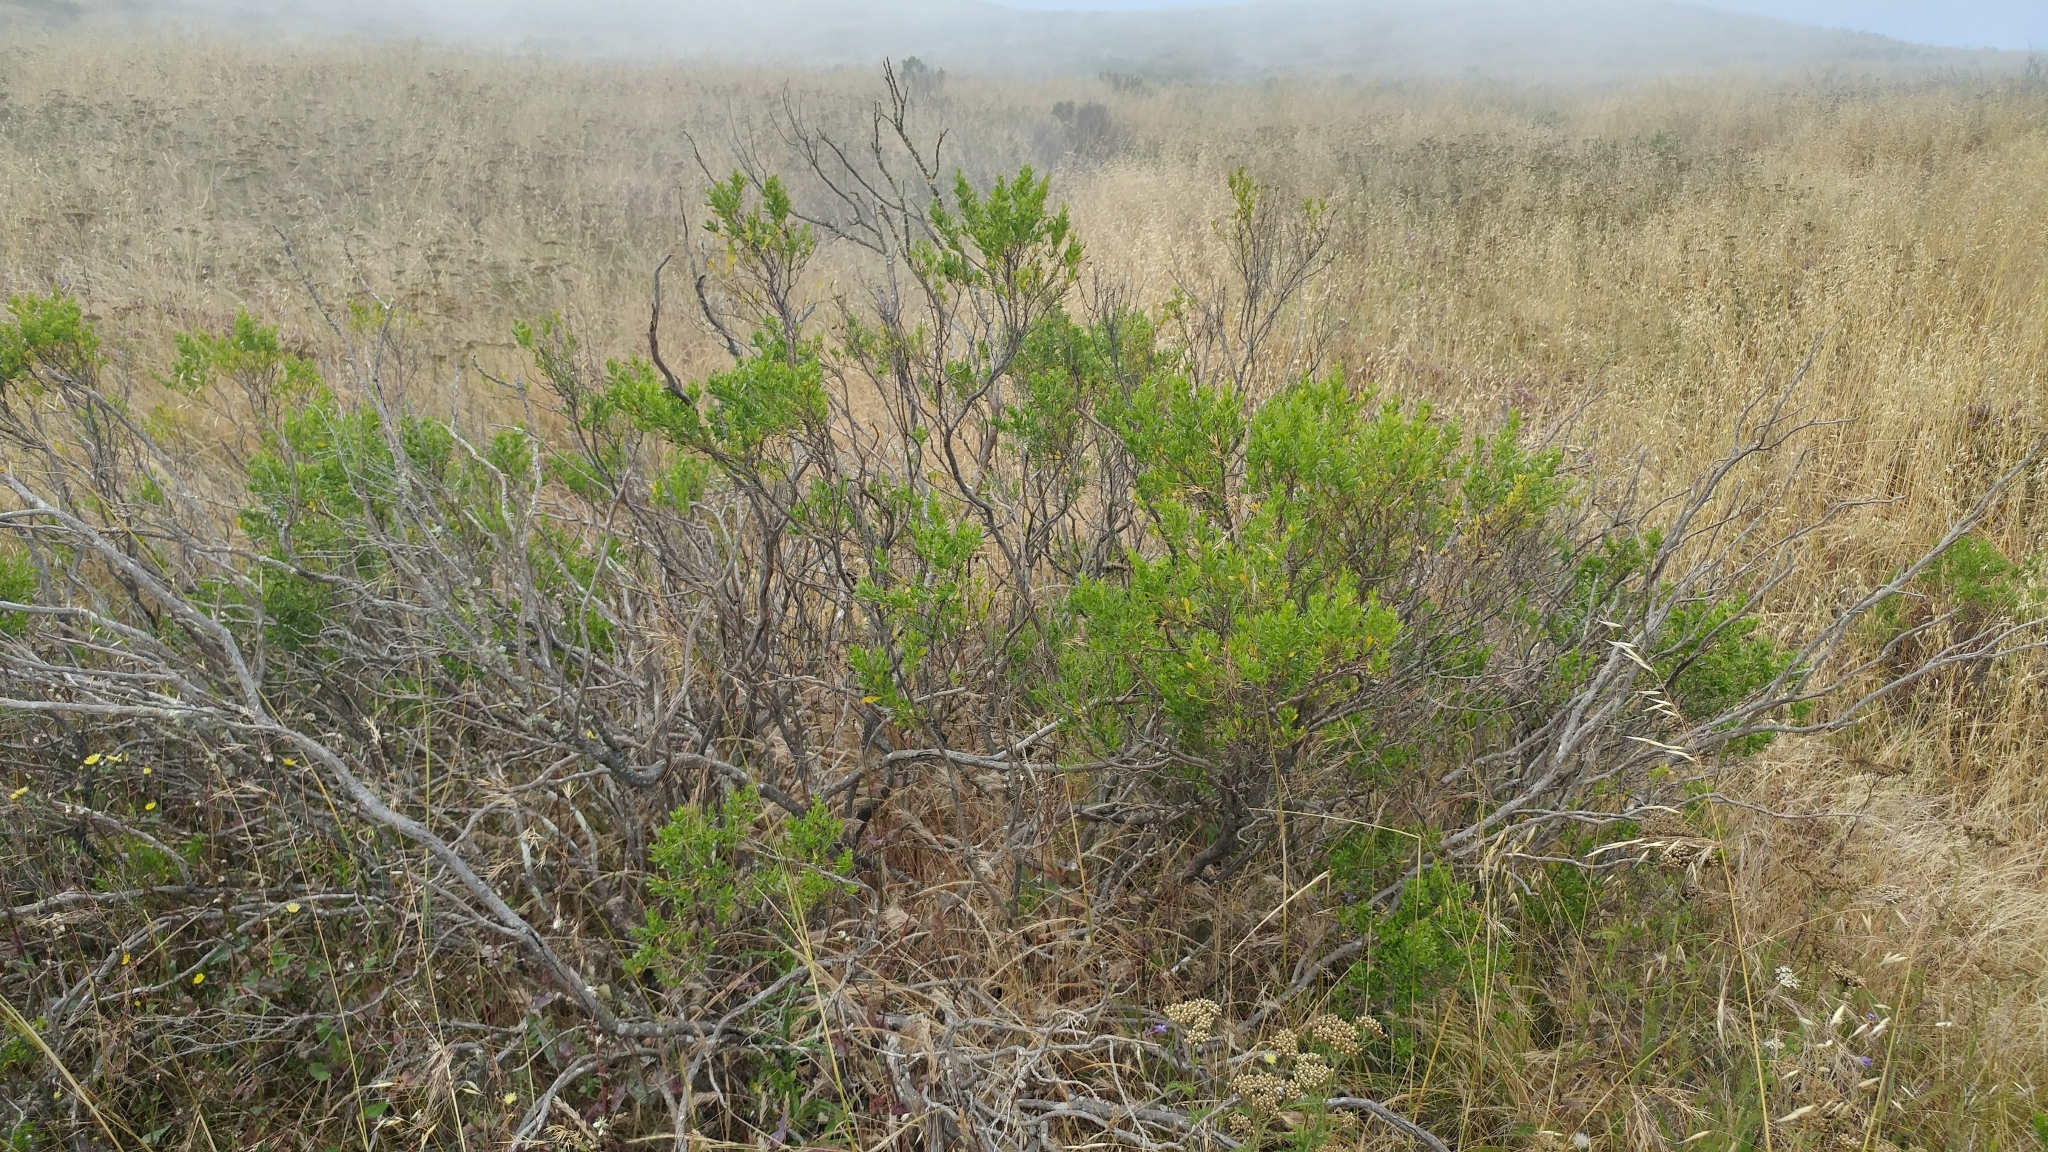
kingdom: Plantae
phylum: Tracheophyta
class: Magnoliopsida
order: Asterales
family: Asteraceae
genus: Baccharis
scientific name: Baccharis pilularis
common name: Coyotebrush
